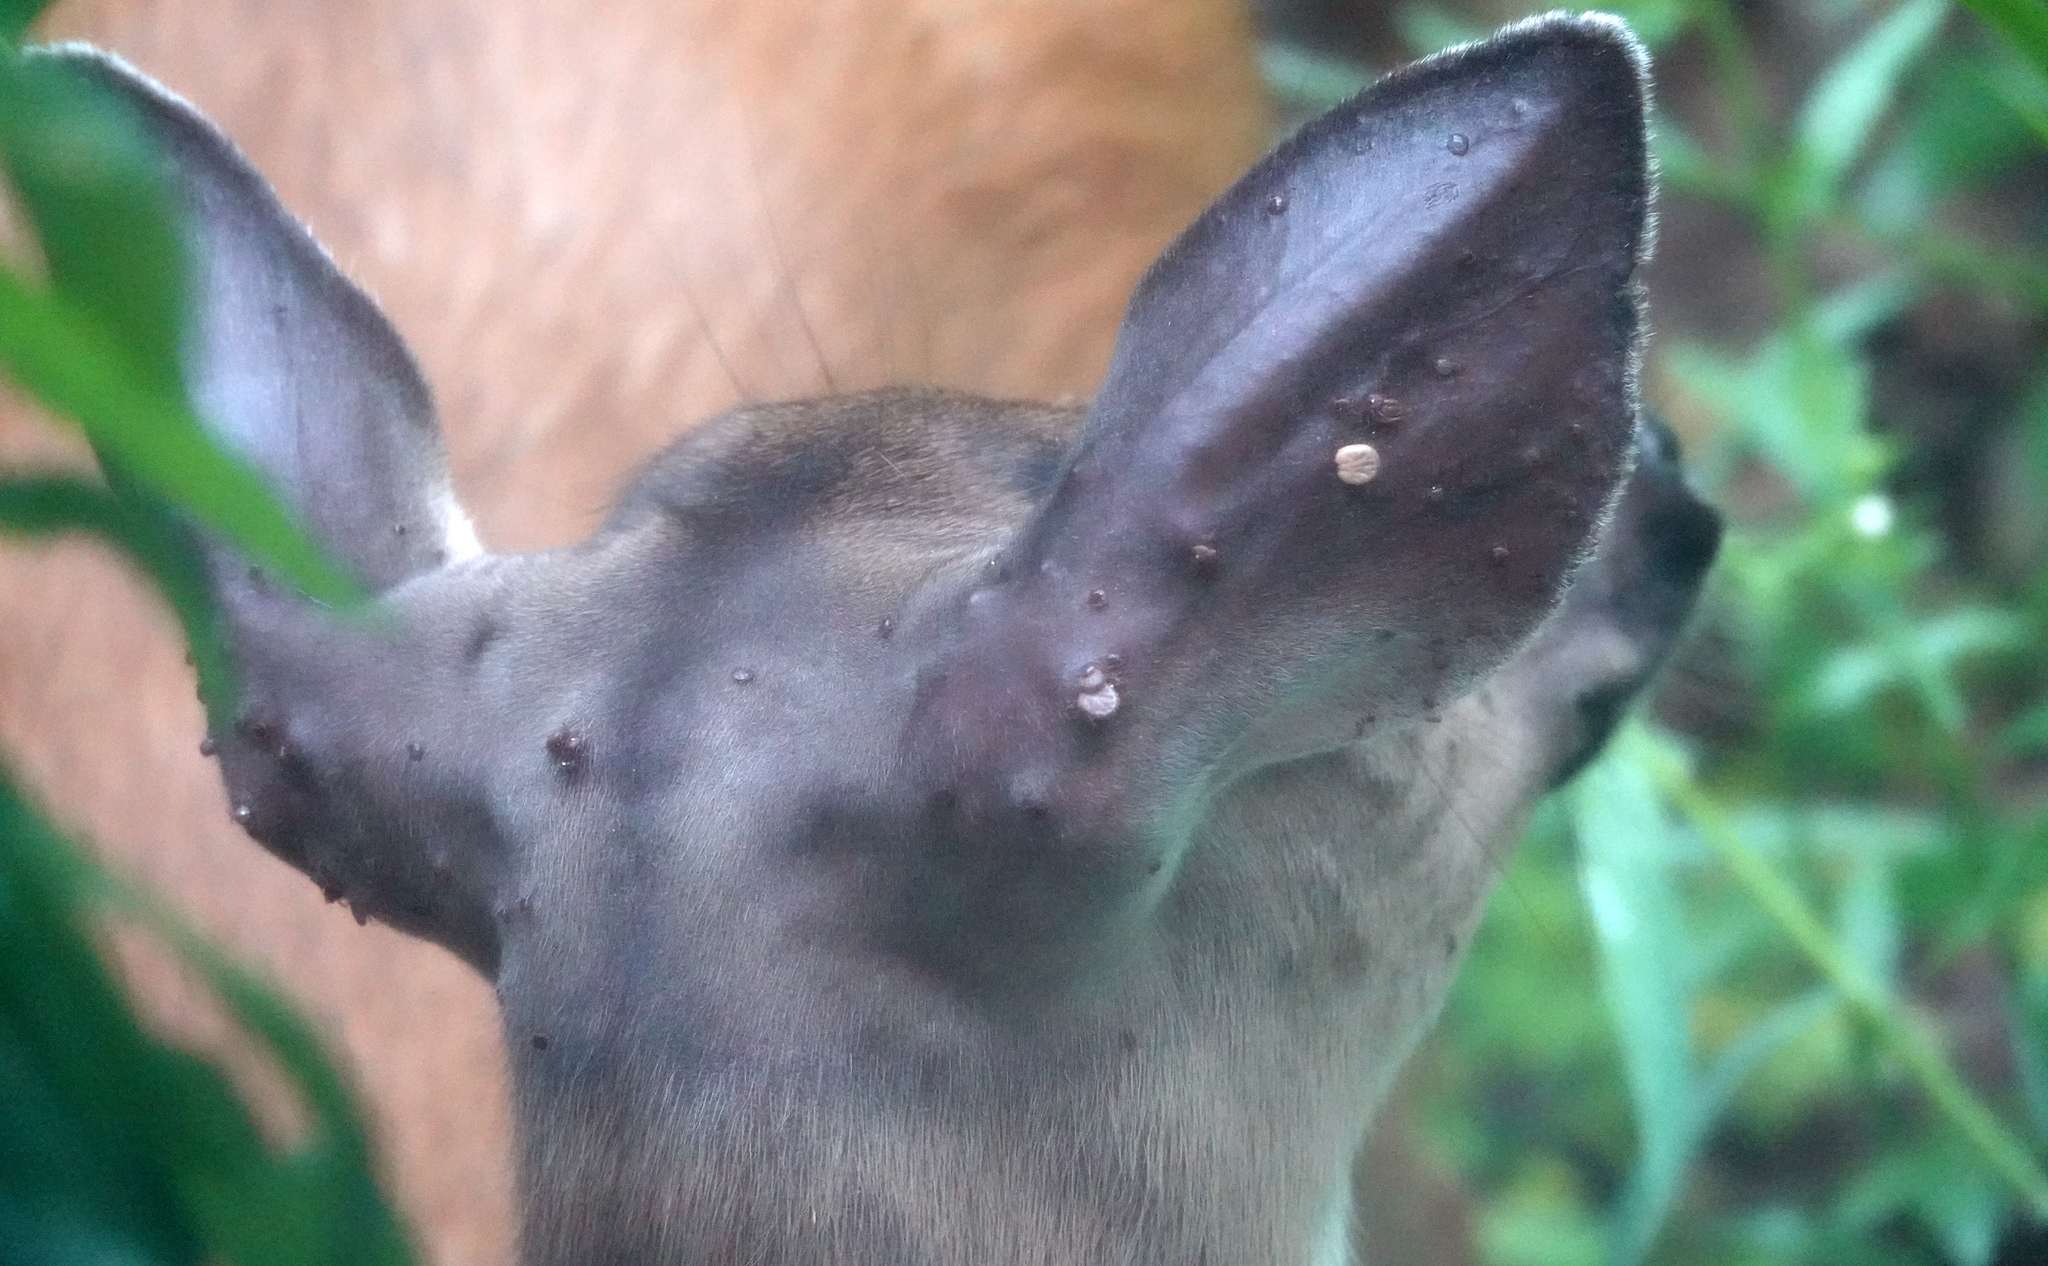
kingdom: Animalia
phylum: Chordata
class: Mammalia
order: Artiodactyla
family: Cervidae
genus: Odocoileus
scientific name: Odocoileus virginianus
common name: White-tailed deer
